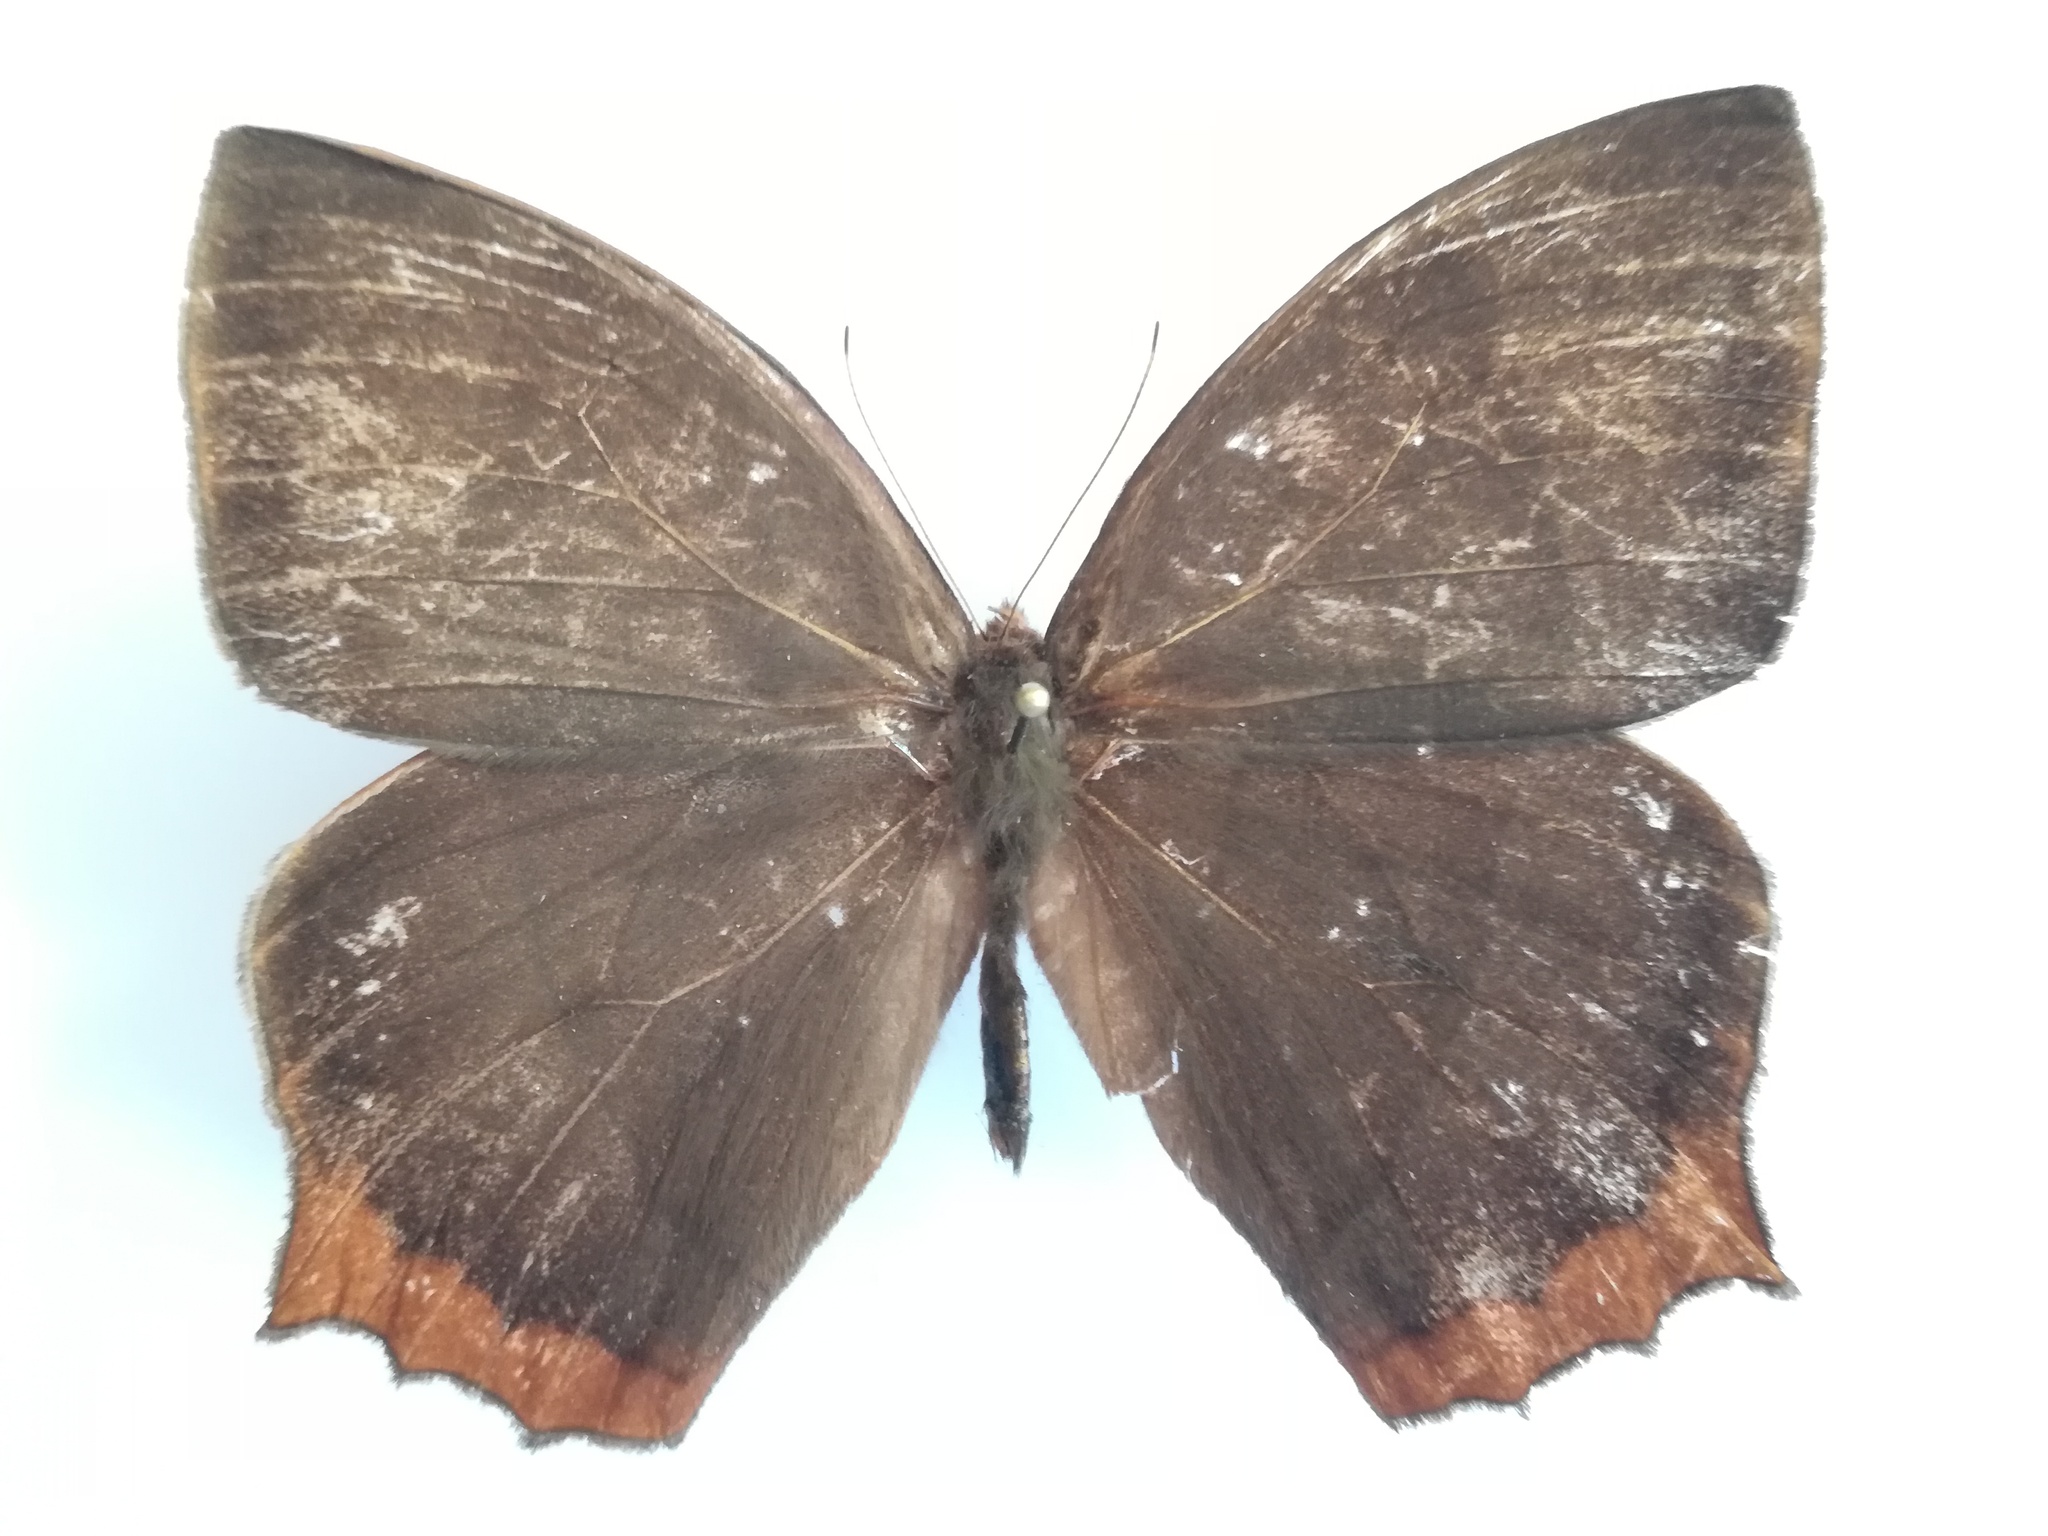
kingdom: Animalia
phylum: Arthropoda
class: Insecta
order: Lepidoptera
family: Nymphalidae
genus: Taygetis
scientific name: Taygetis virgilia
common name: Stub-tailed satyr
